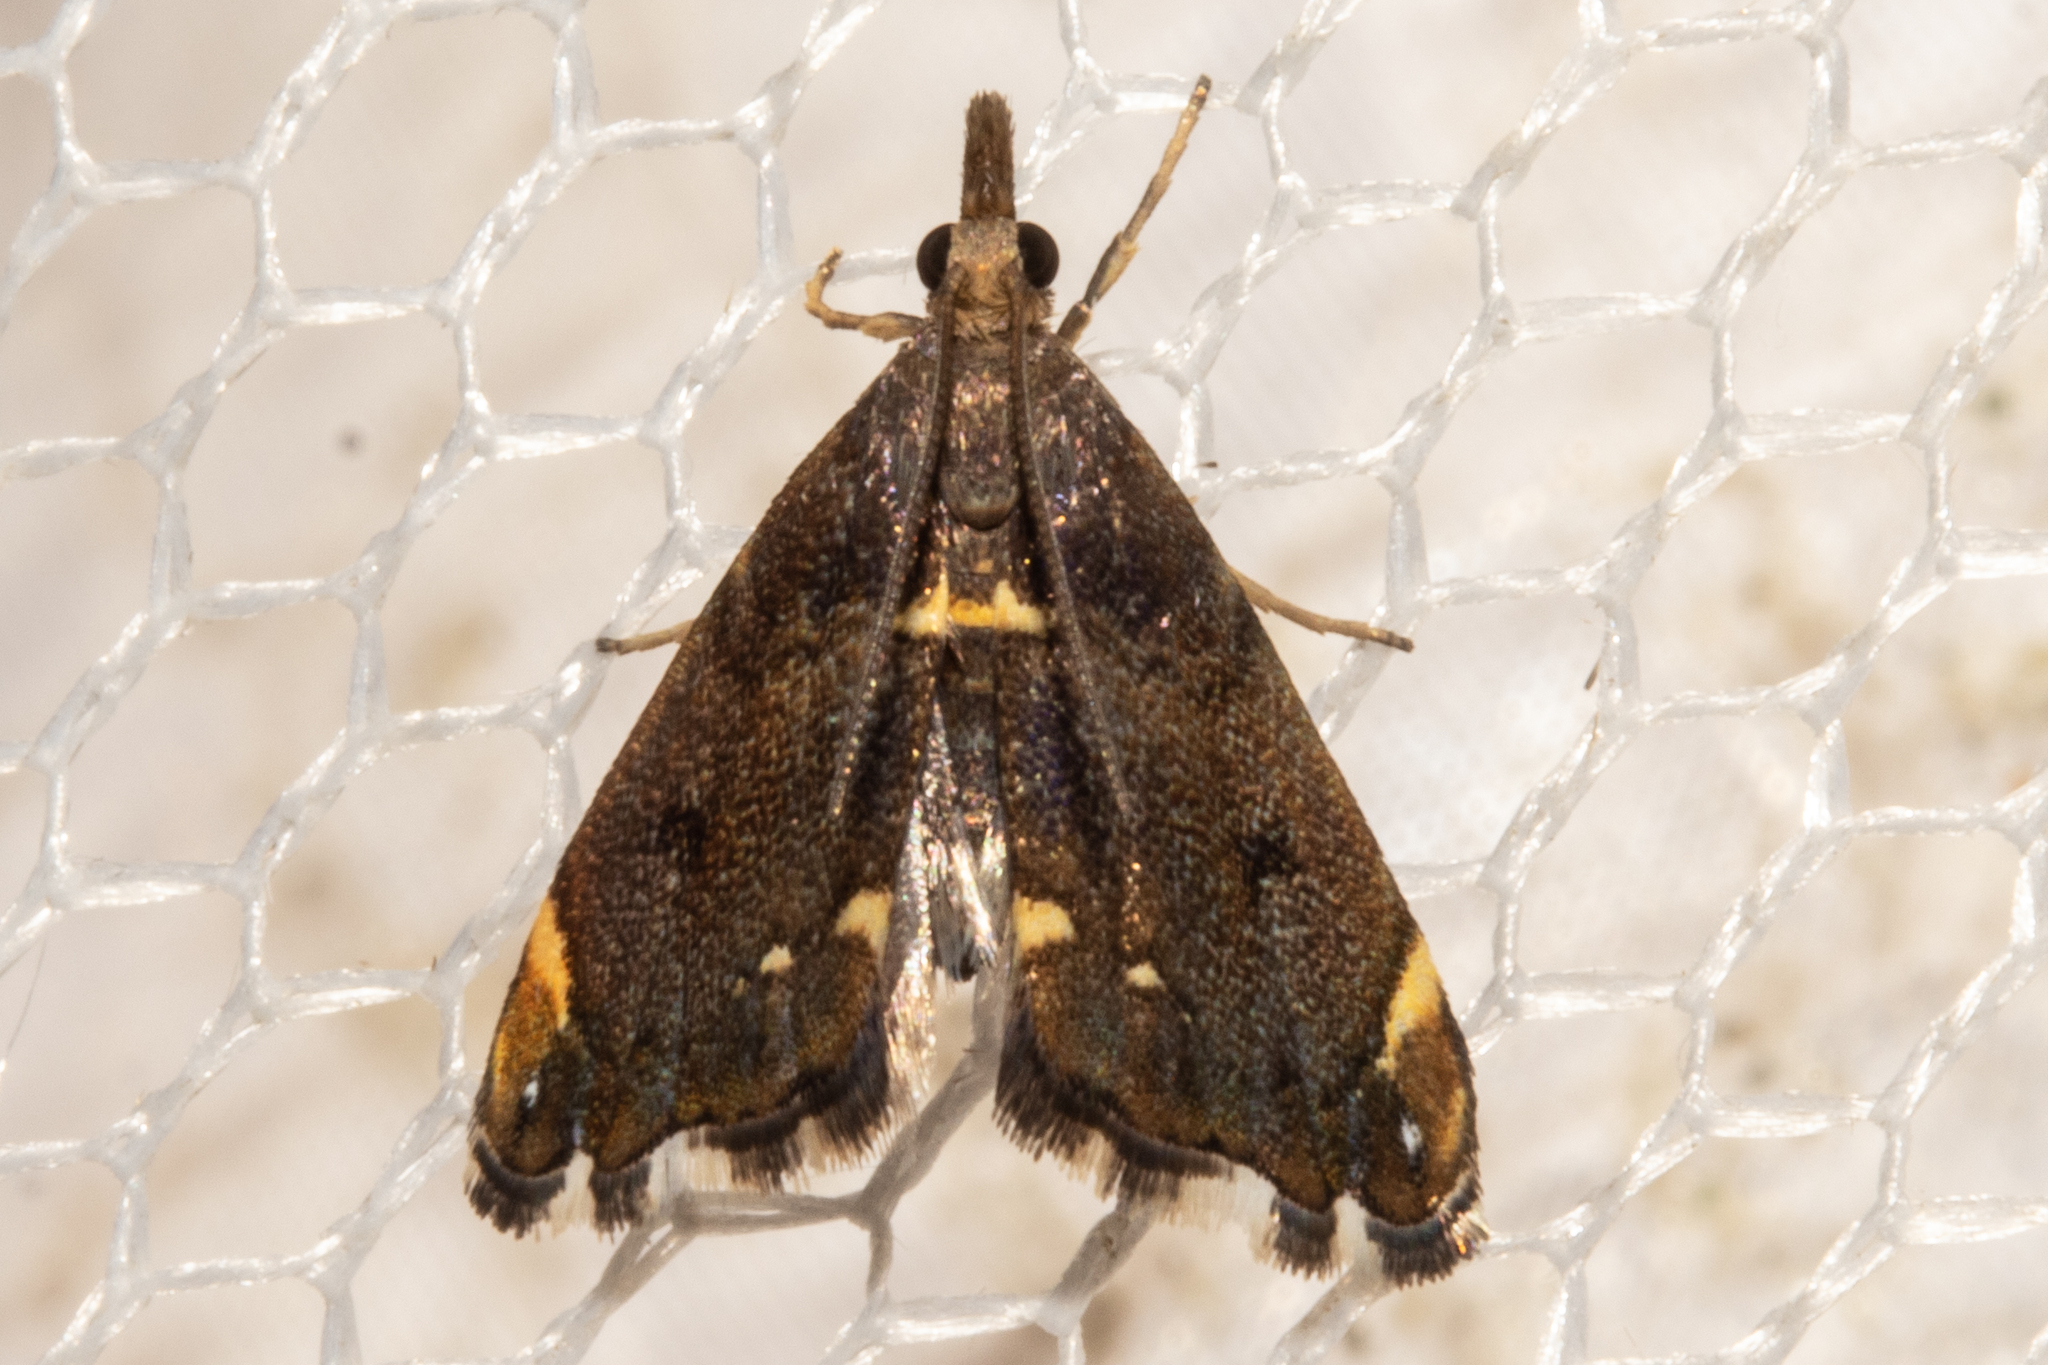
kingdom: Animalia
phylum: Arthropoda
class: Insecta
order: Lepidoptera
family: Crambidae
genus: Glaucocharis
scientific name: Glaucocharis pyrsophanes
